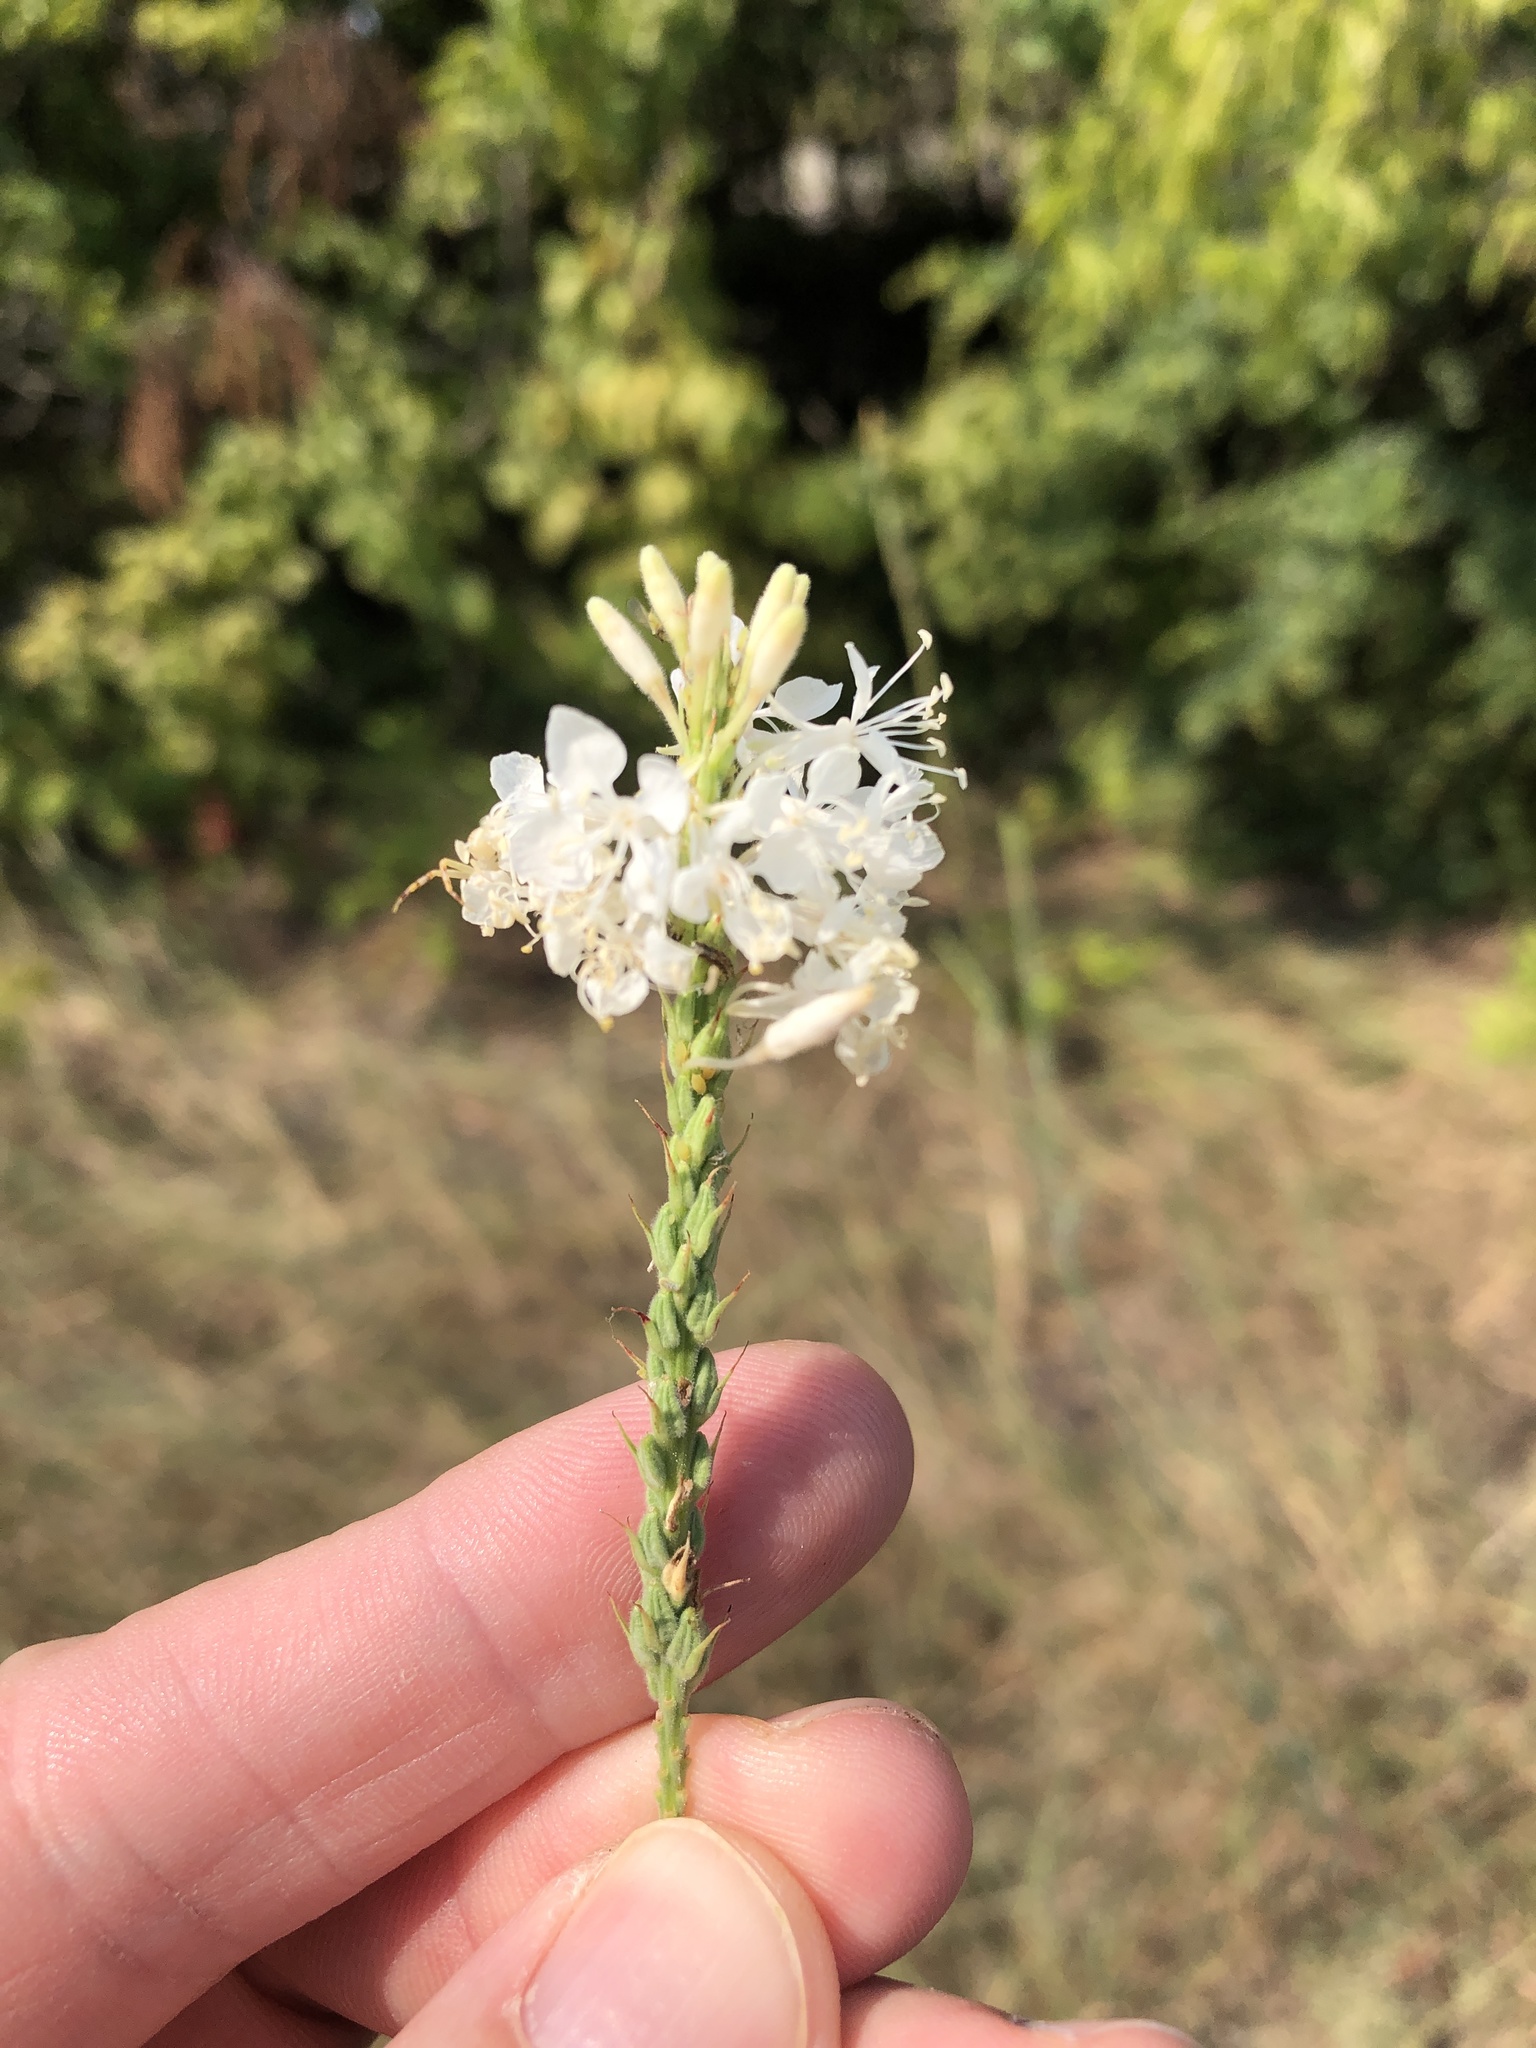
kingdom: Plantae
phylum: Tracheophyta
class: Magnoliopsida
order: Myrtales
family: Onagraceae
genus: Oenothera
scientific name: Oenothera glaucifolia
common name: False gaura
